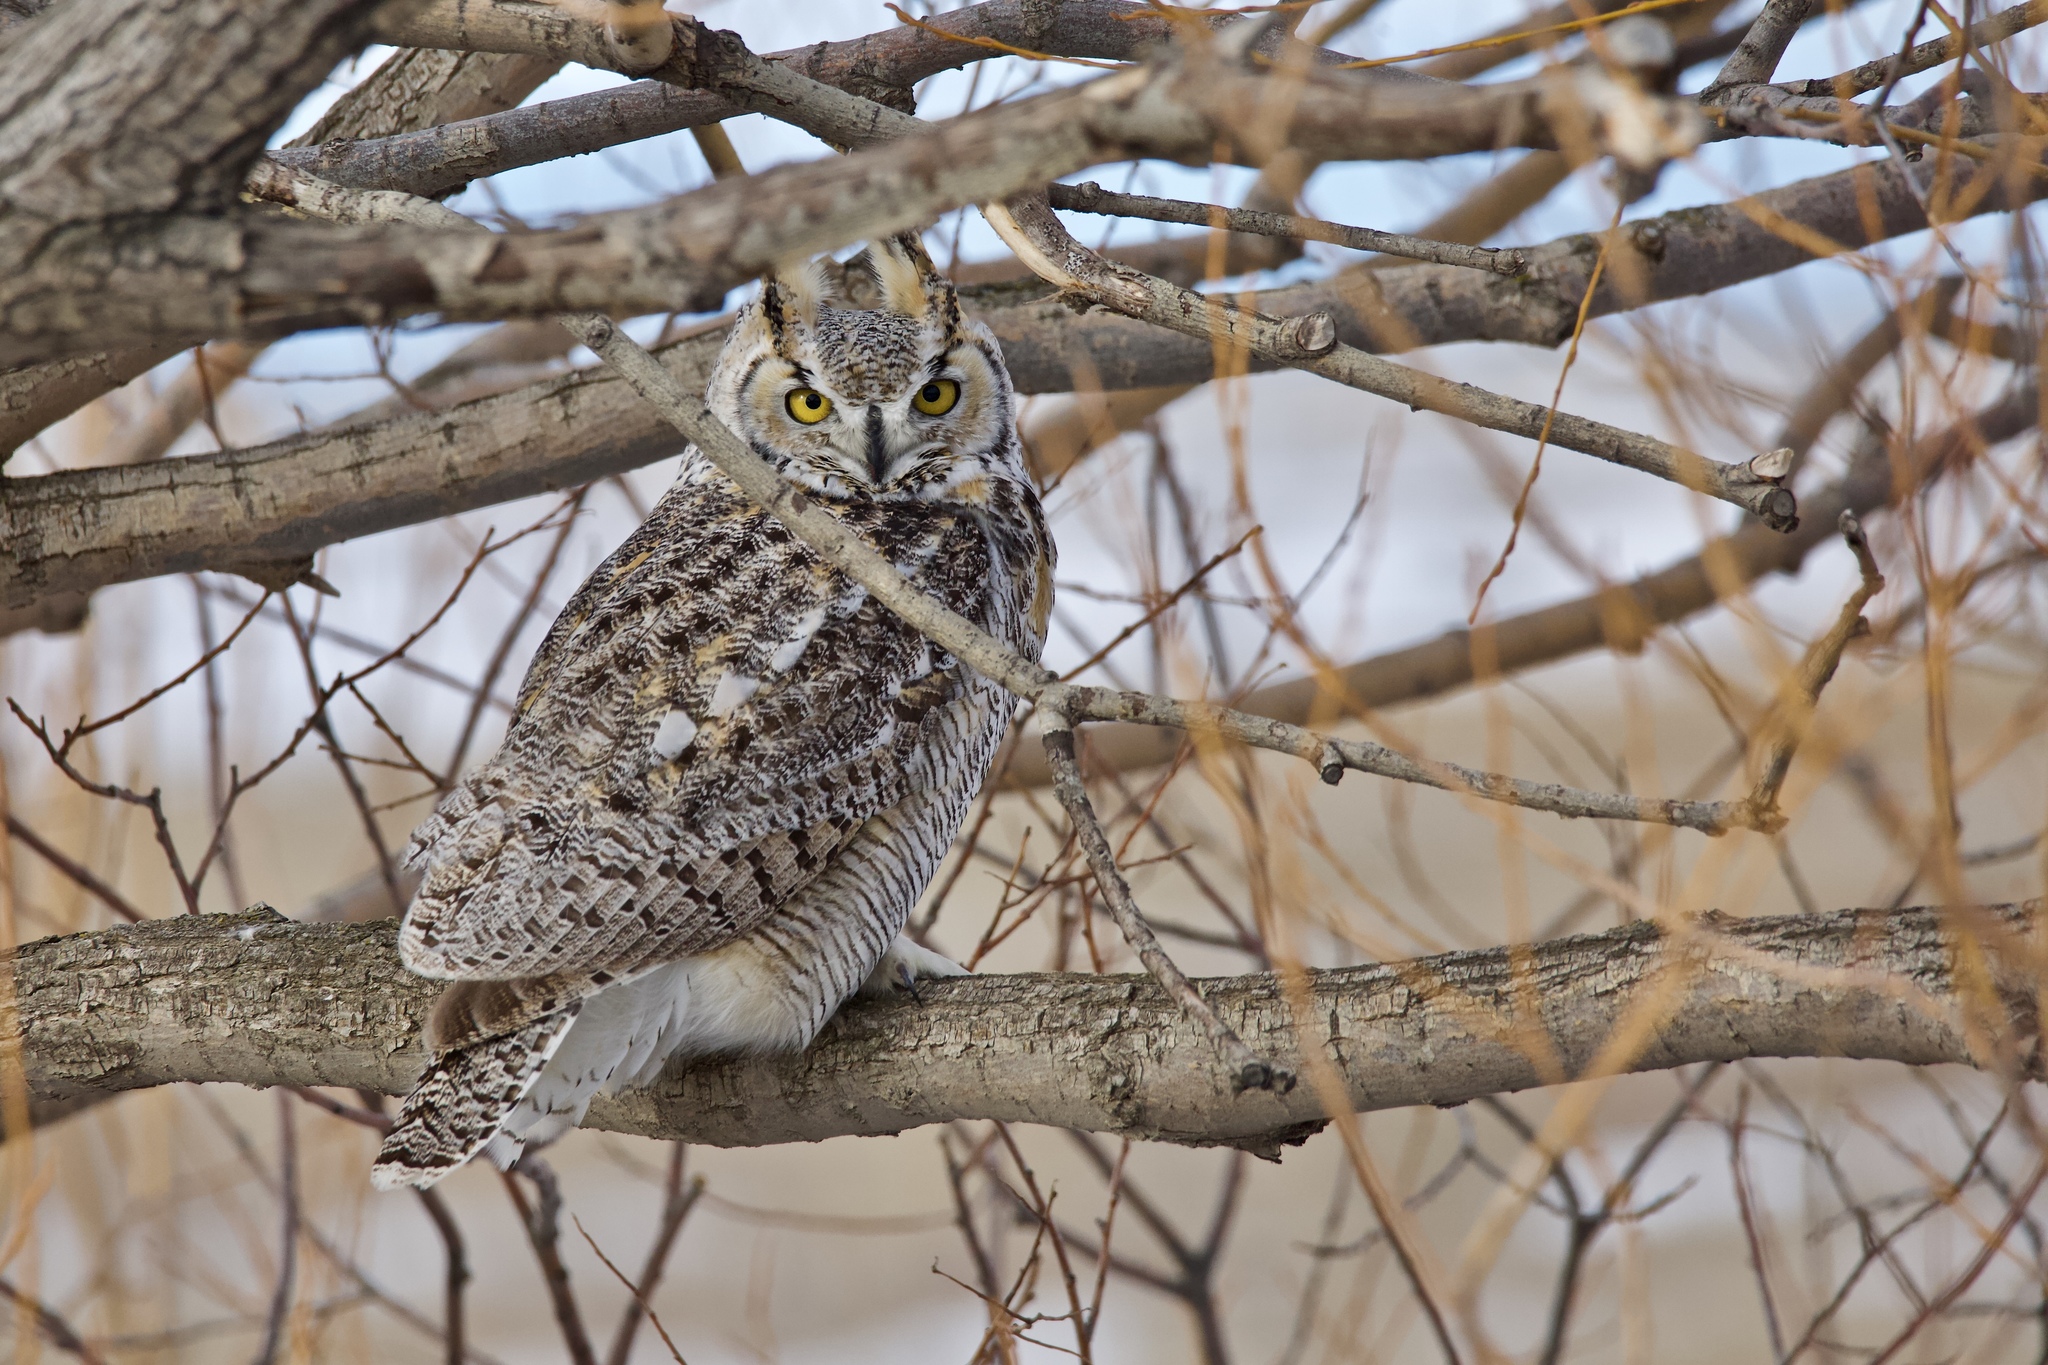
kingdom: Animalia
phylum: Chordata
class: Aves
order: Strigiformes
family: Strigidae
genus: Bubo
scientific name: Bubo virginianus
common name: Great horned owl
